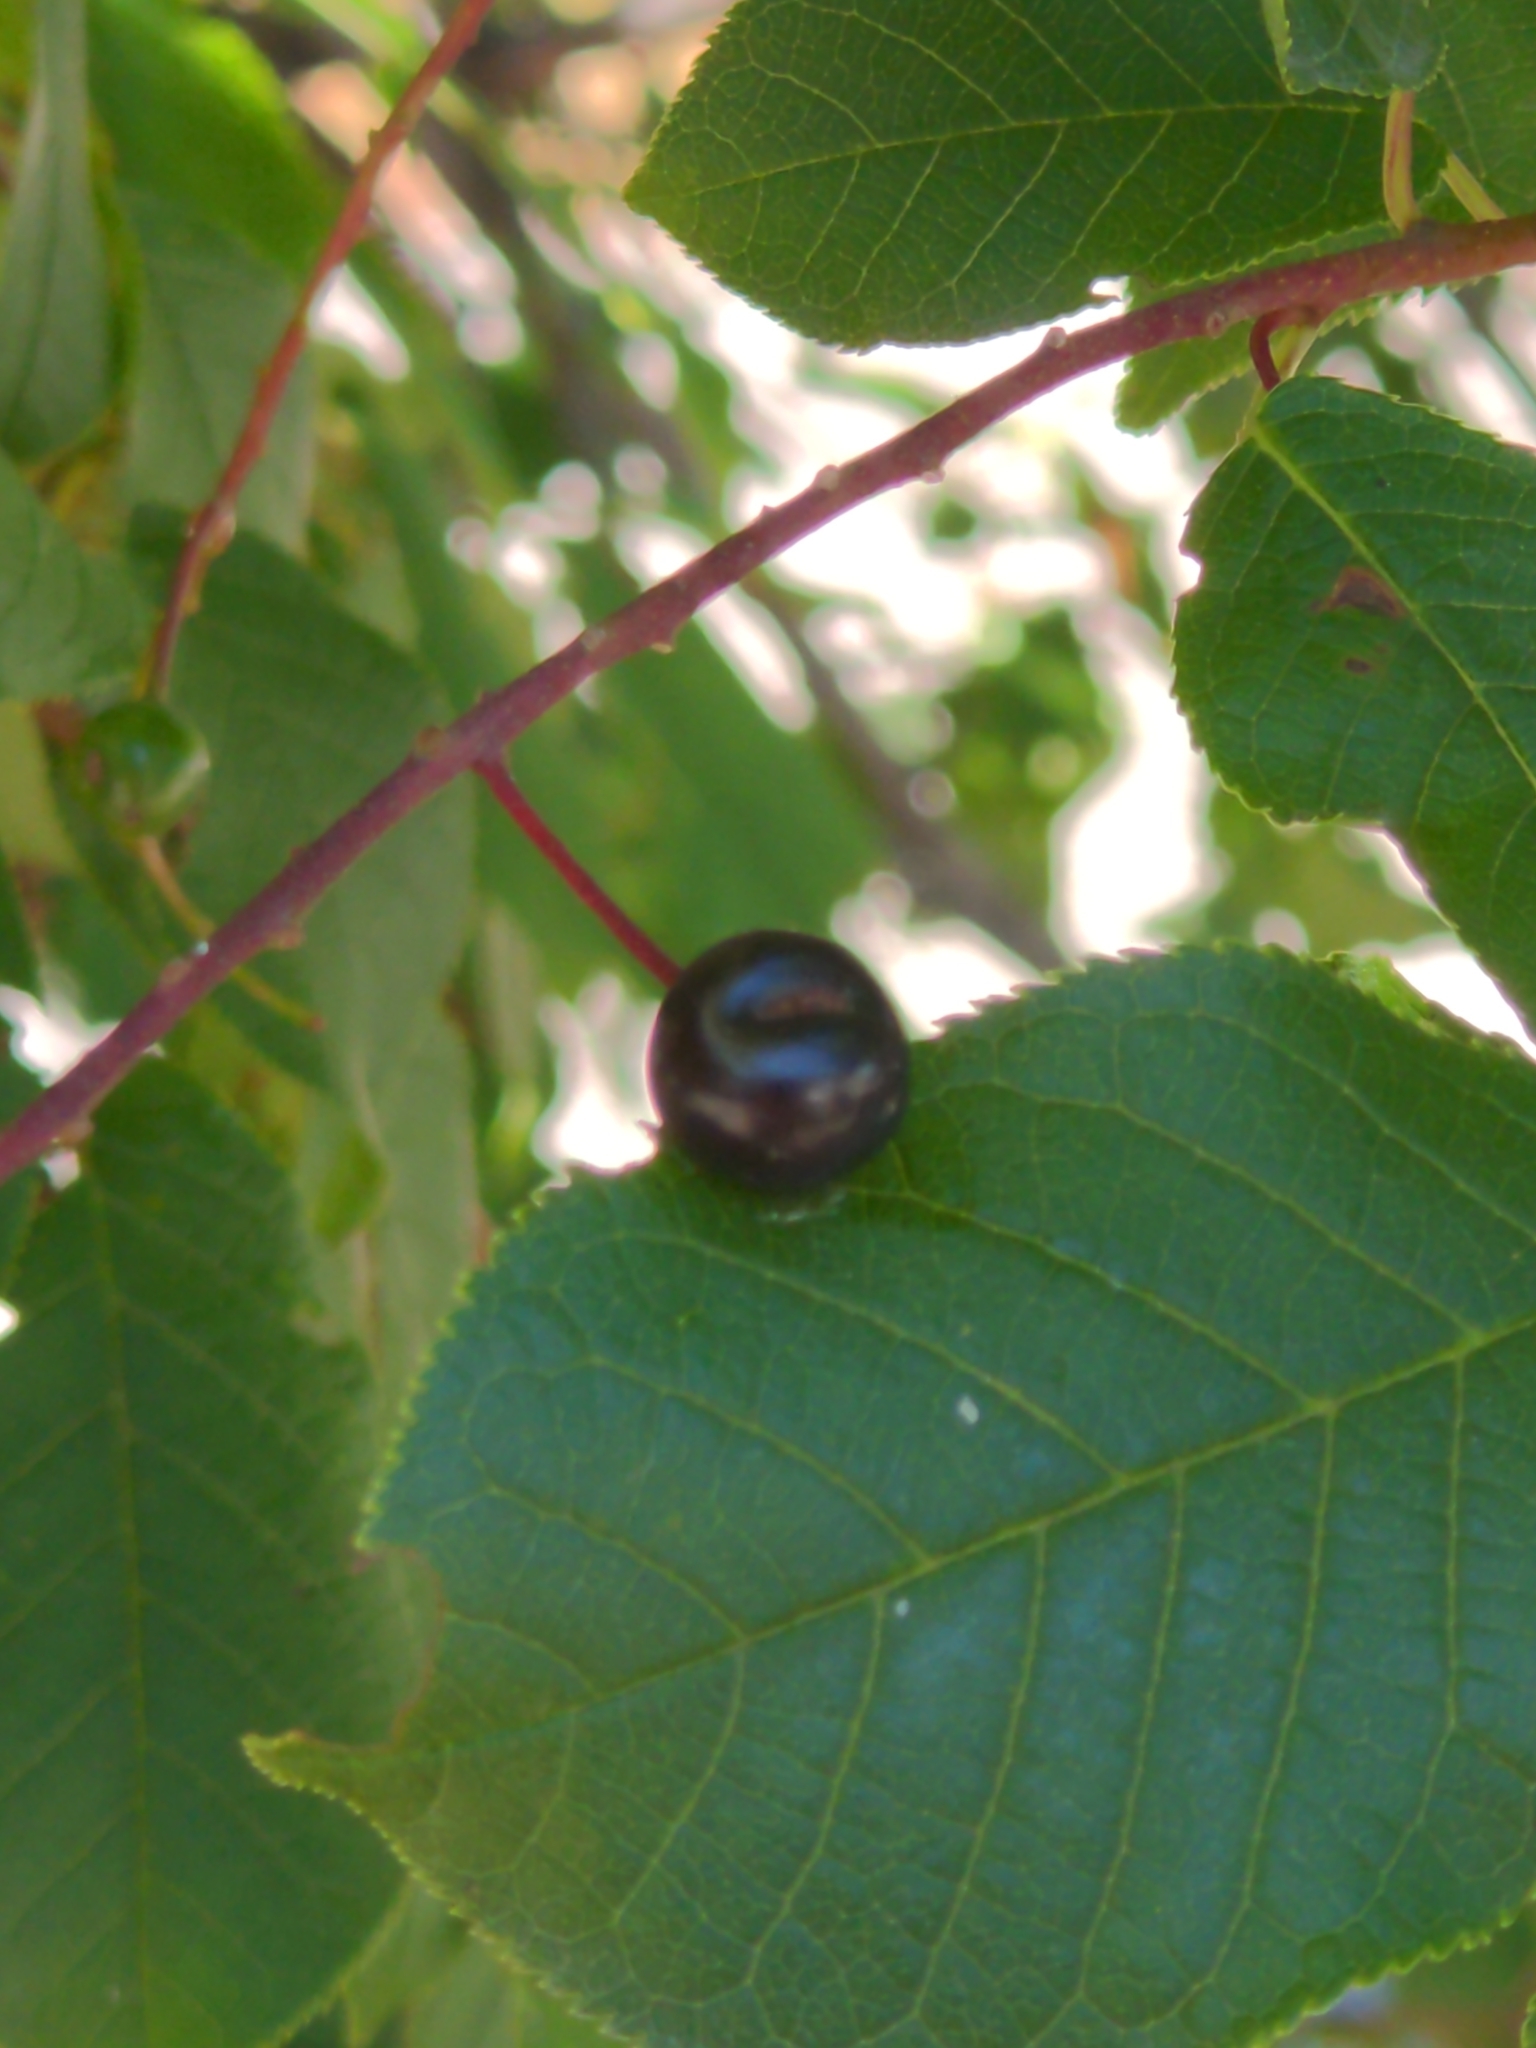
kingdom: Plantae
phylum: Tracheophyta
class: Magnoliopsida
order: Rosales
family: Rosaceae
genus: Prunus
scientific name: Prunus padus
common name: Bird cherry
